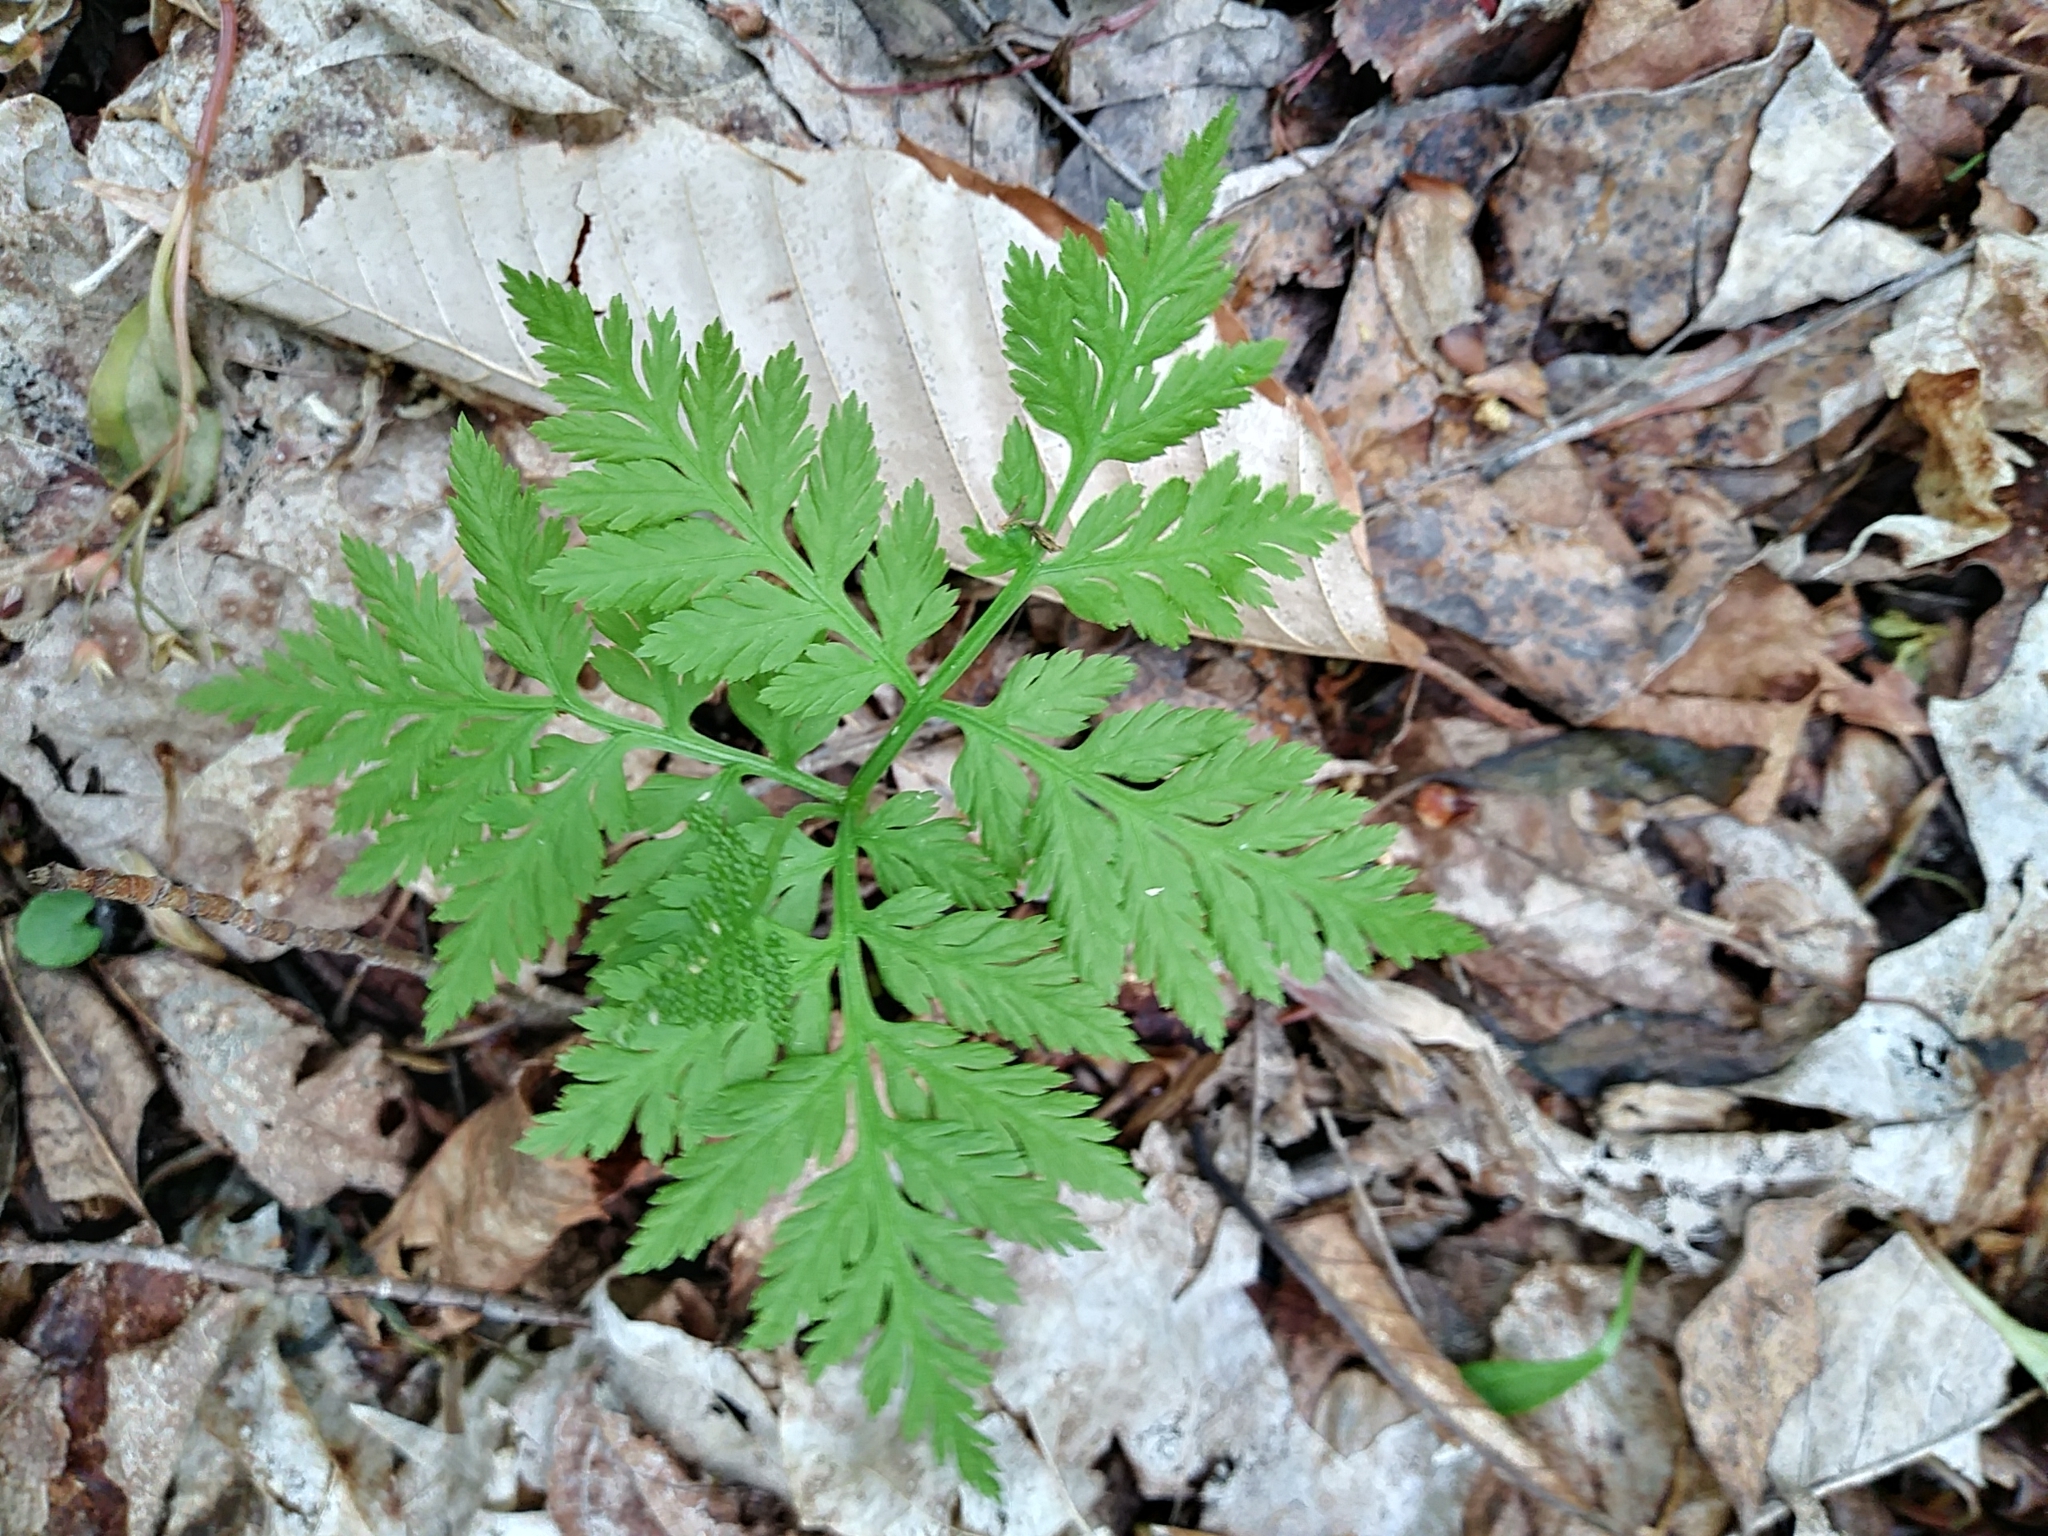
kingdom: Plantae
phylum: Tracheophyta
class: Polypodiopsida
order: Ophioglossales
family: Ophioglossaceae
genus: Botrypus
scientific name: Botrypus virginianus
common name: Common grapefern
